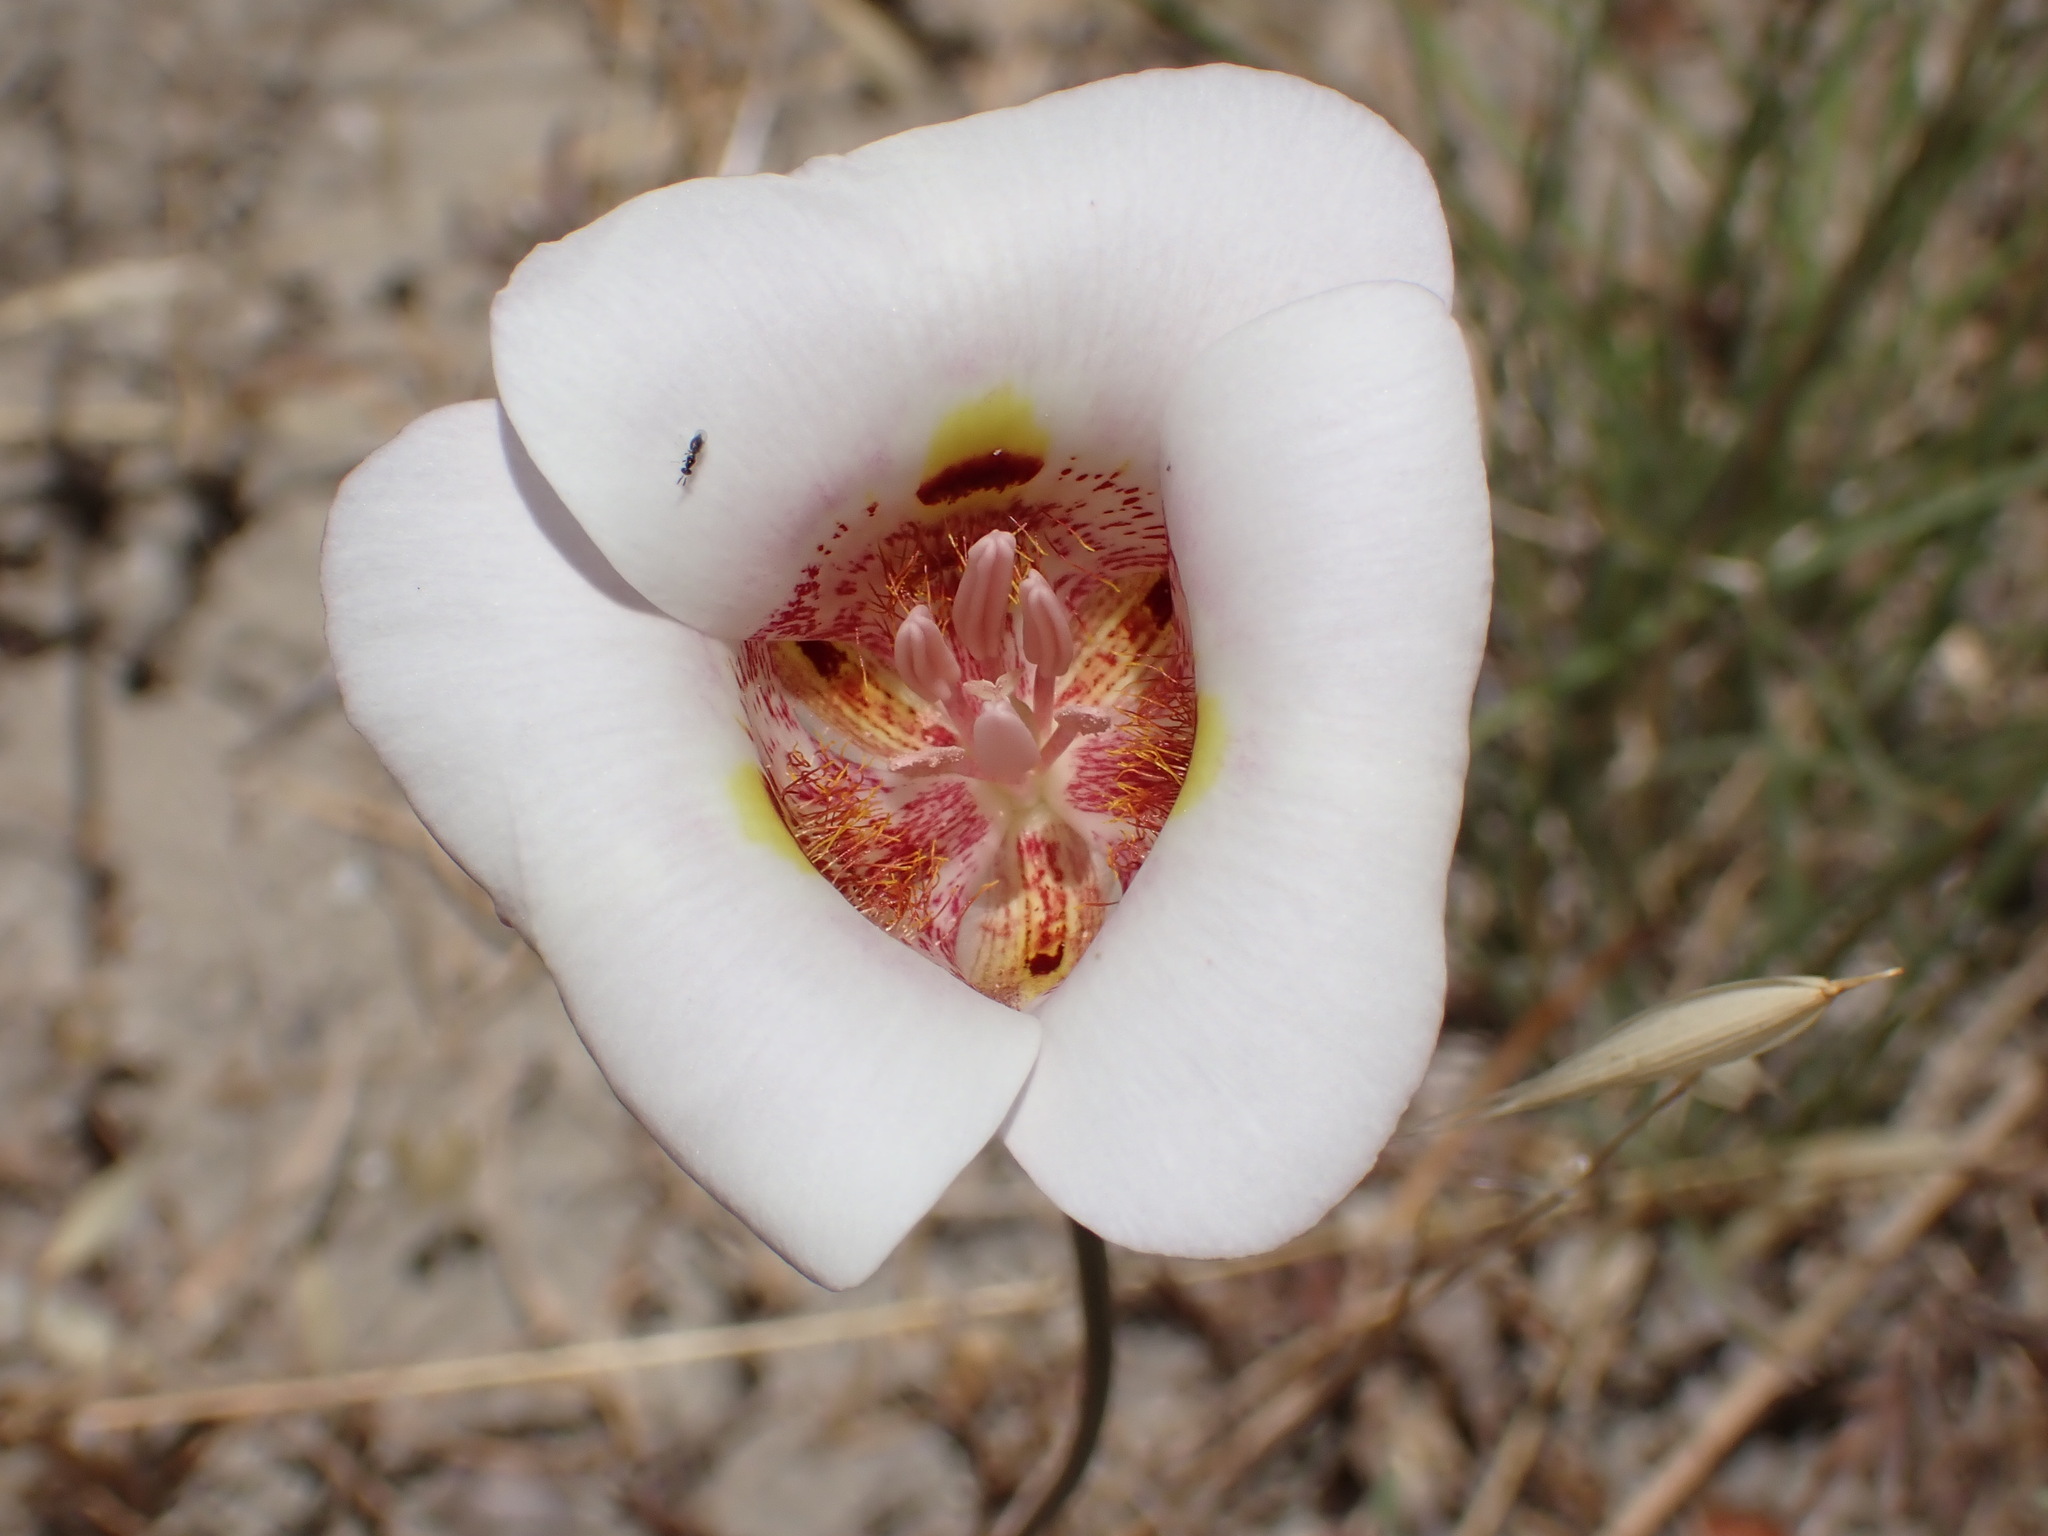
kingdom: Plantae
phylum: Tracheophyta
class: Liliopsida
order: Liliales
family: Liliaceae
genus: Calochortus
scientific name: Calochortus argillosus
